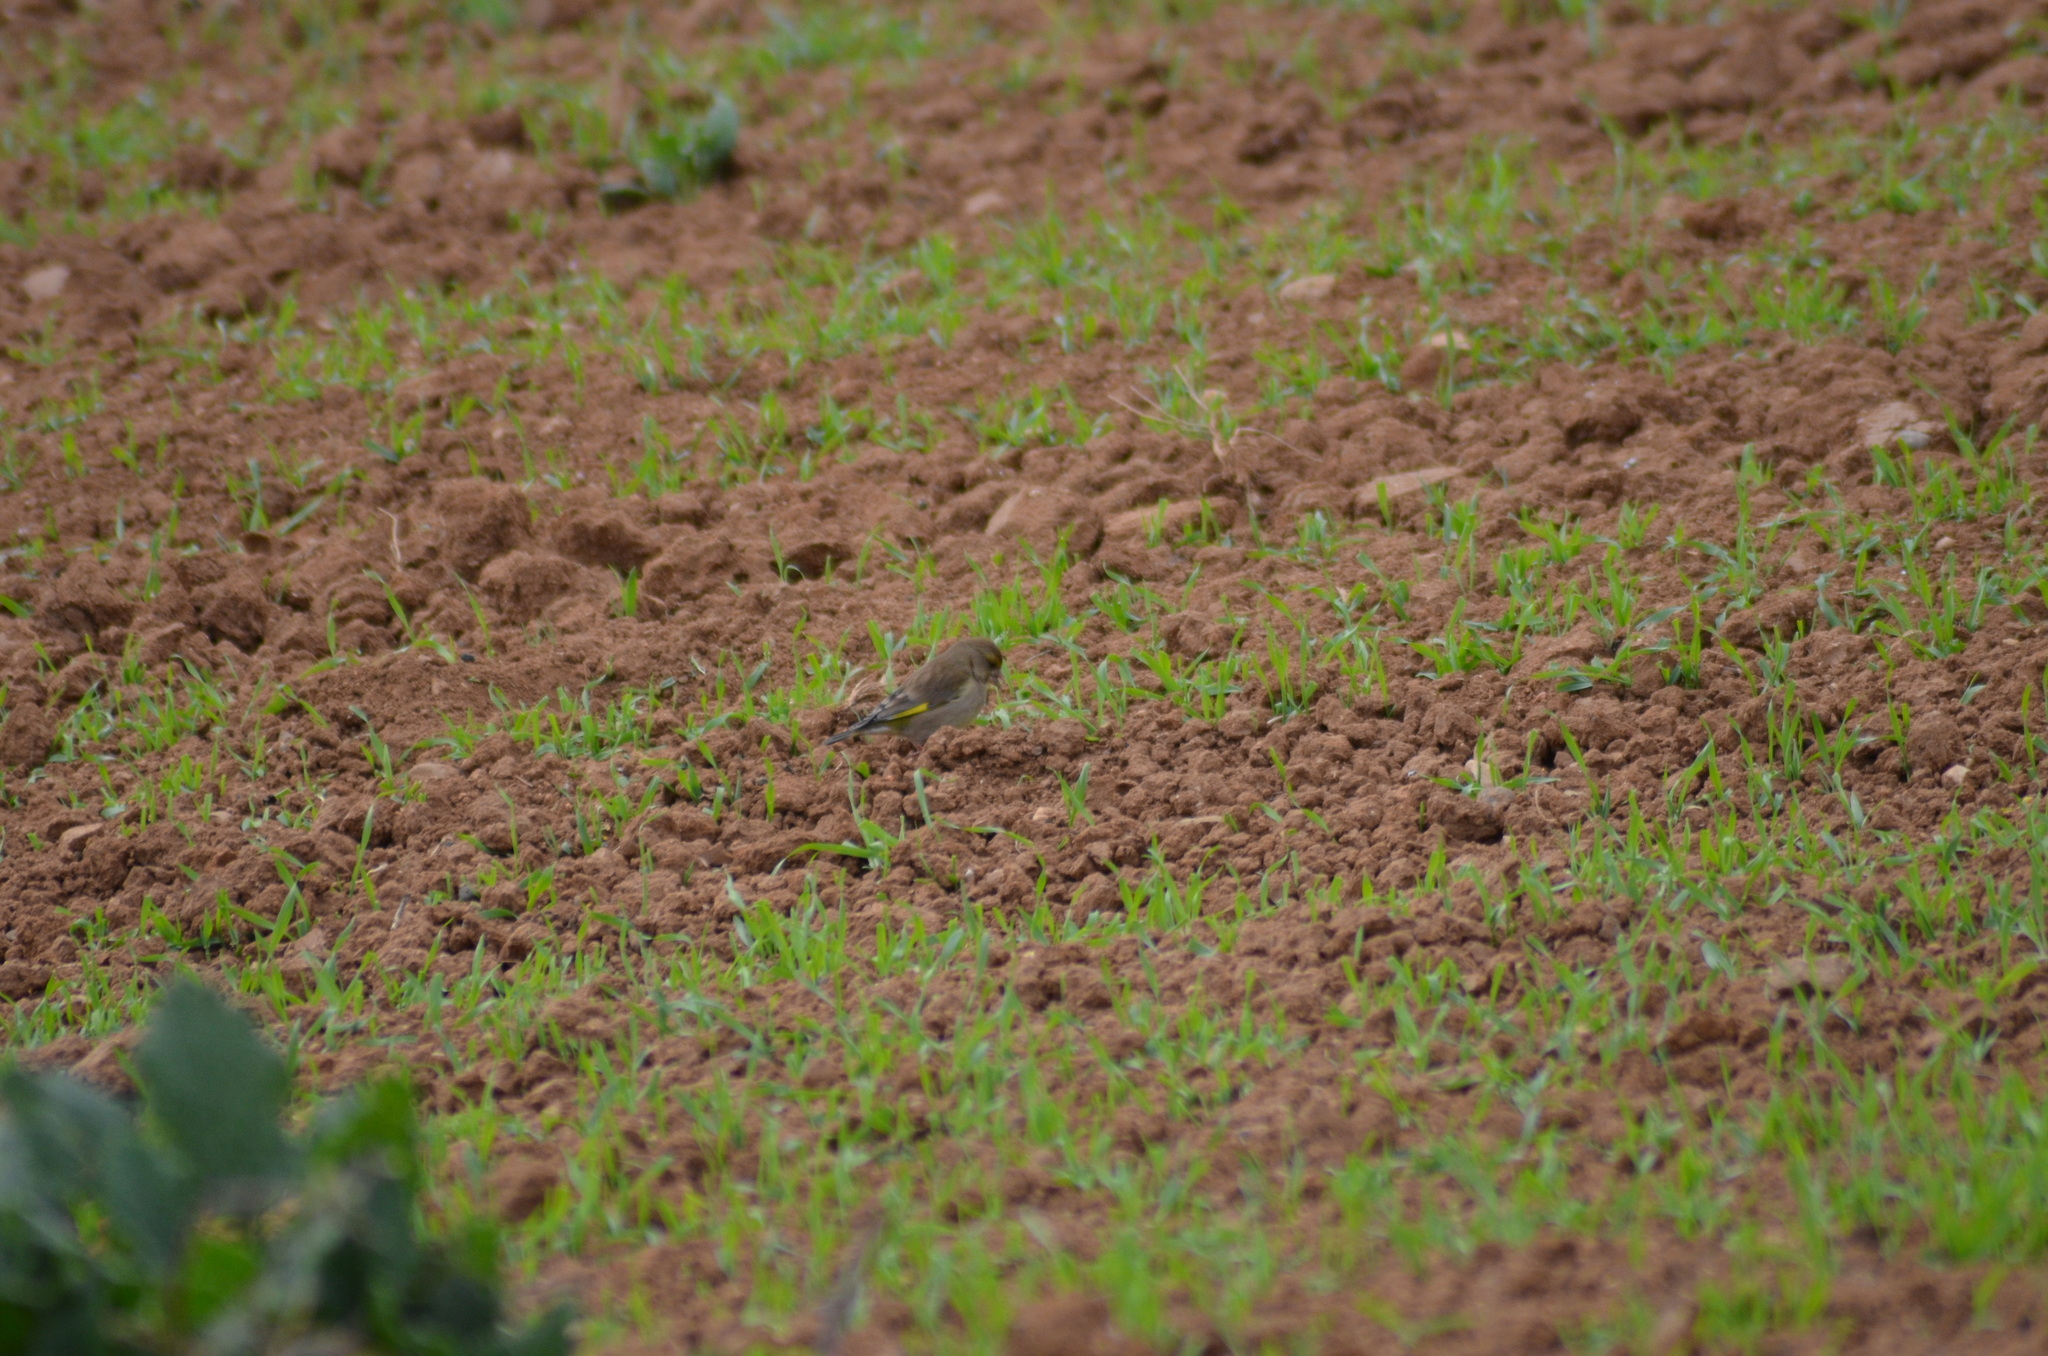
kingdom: Plantae
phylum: Tracheophyta
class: Liliopsida
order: Poales
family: Poaceae
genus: Chloris
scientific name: Chloris chloris
